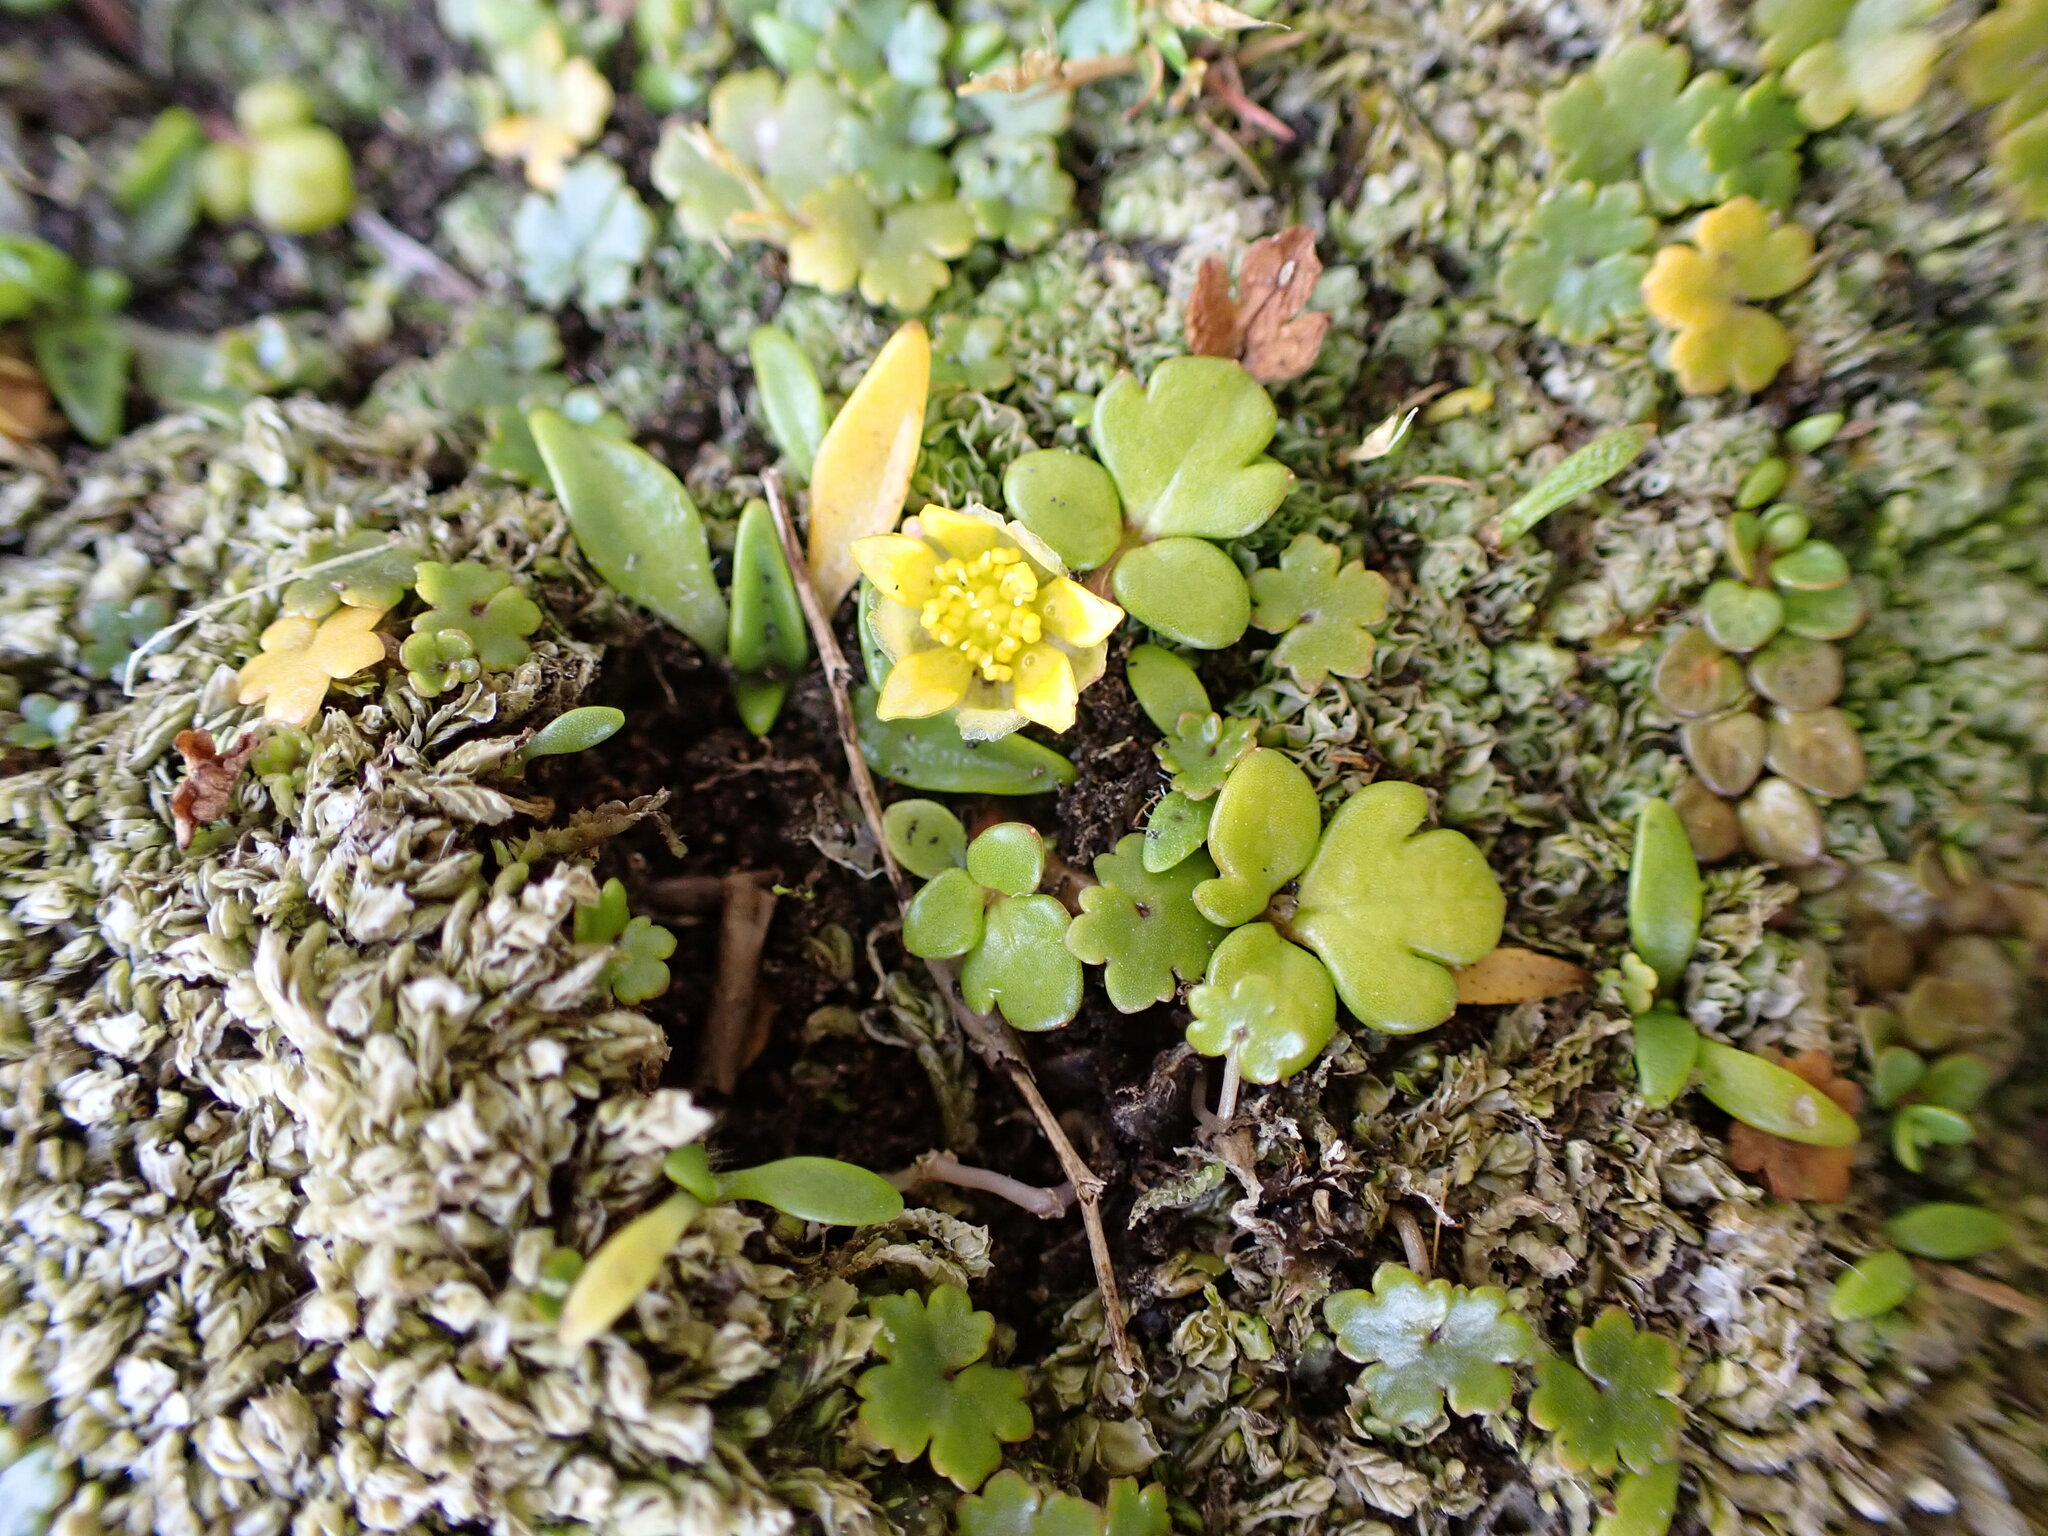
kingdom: Plantae
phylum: Tracheophyta
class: Magnoliopsida
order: Ranunculales
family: Ranunculaceae
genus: Ranunculus
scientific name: Ranunculus acaulis
